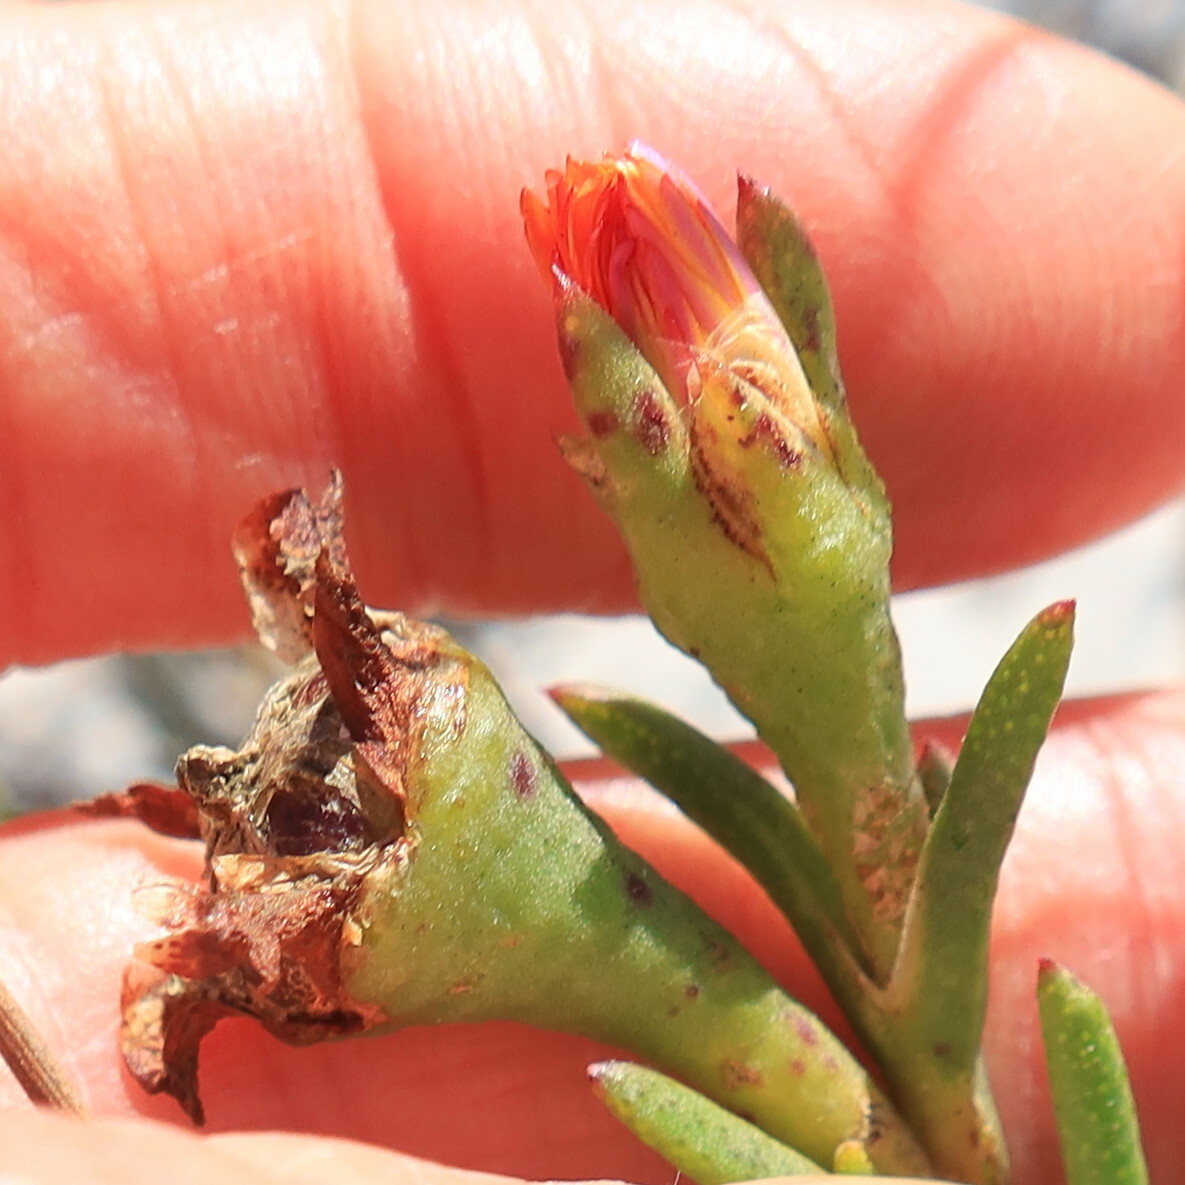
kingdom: Plantae
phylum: Tracheophyta
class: Magnoliopsida
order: Caryophyllales
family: Aizoaceae
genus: Lampranthus
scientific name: Lampranthus bicolor
